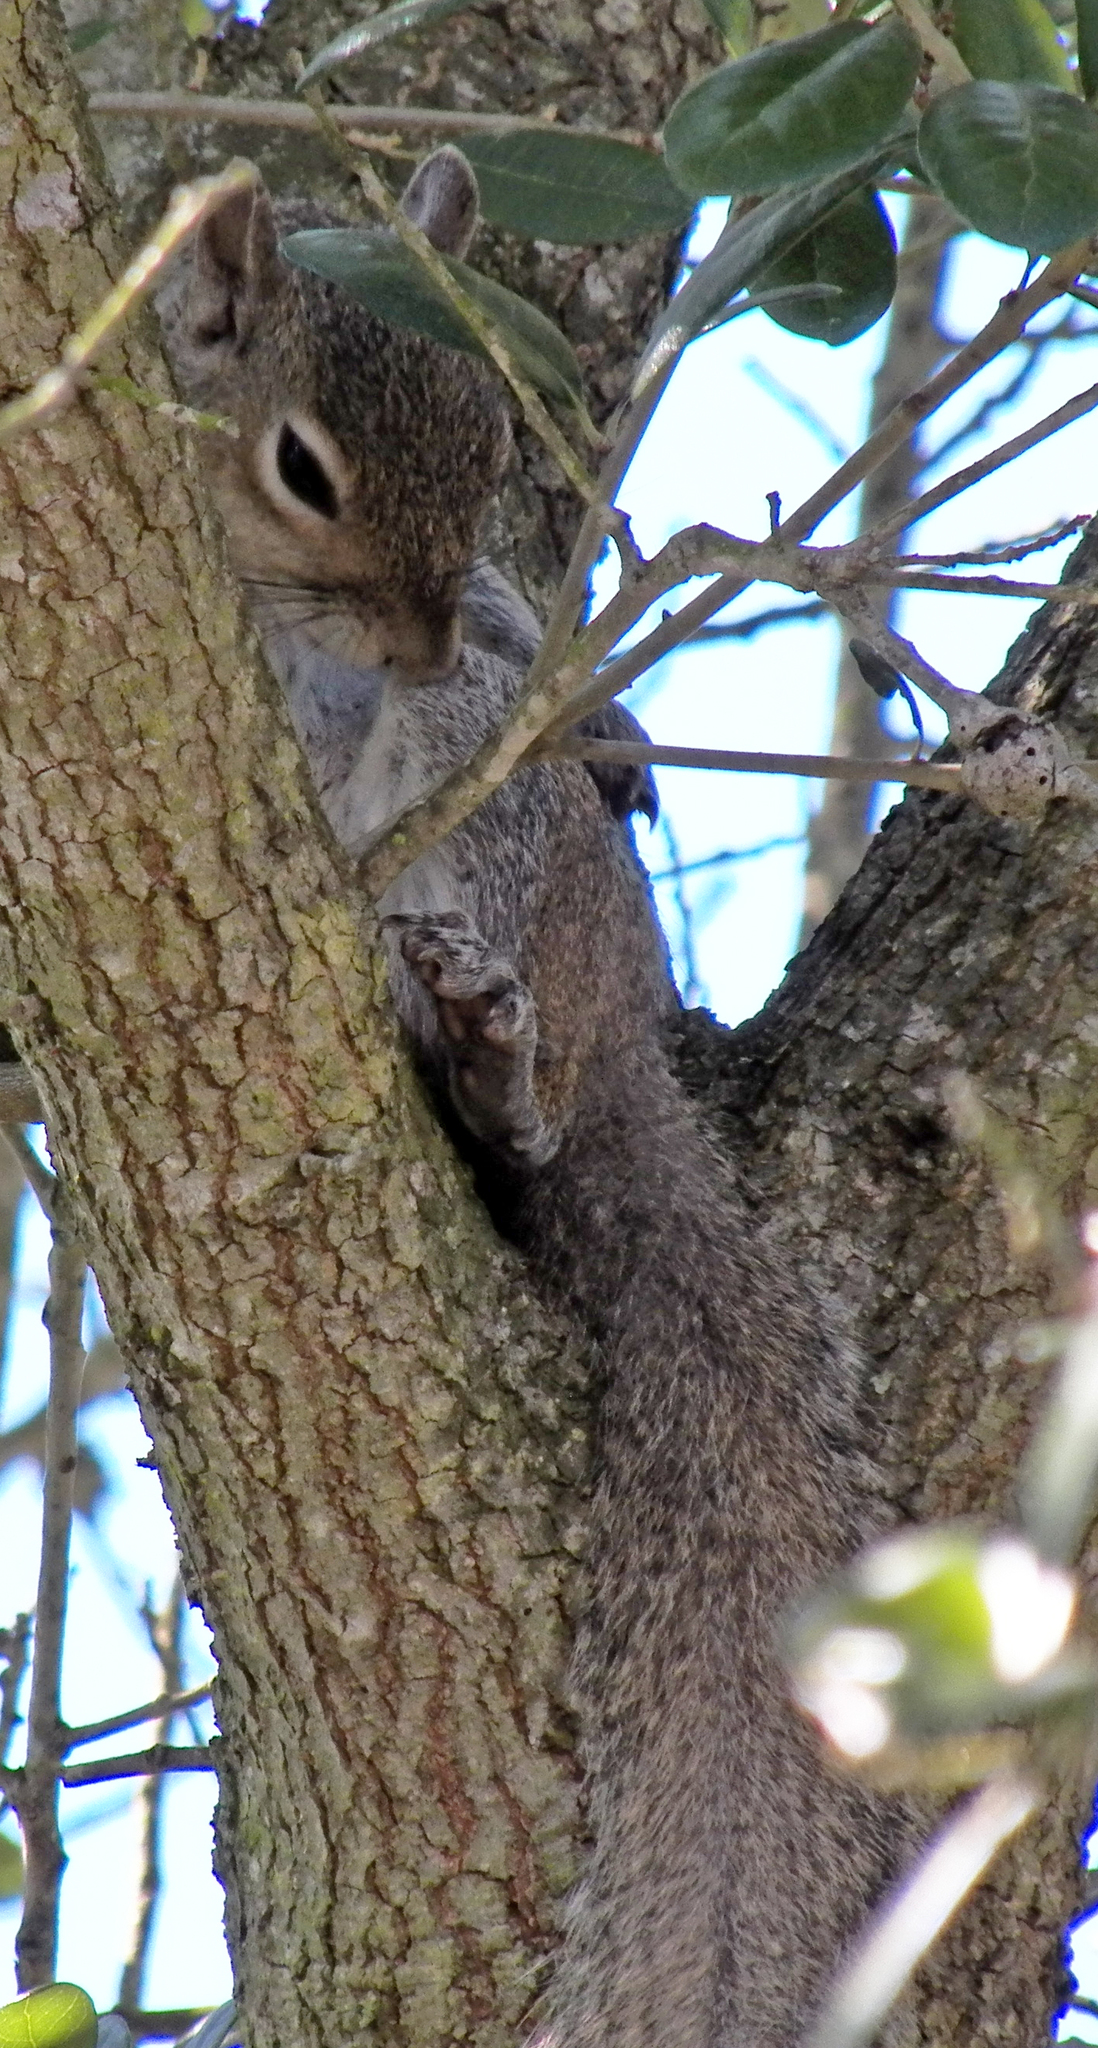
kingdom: Animalia
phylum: Chordata
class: Mammalia
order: Rodentia
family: Sciuridae
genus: Sciurus
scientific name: Sciurus carolinensis
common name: Eastern gray squirrel
